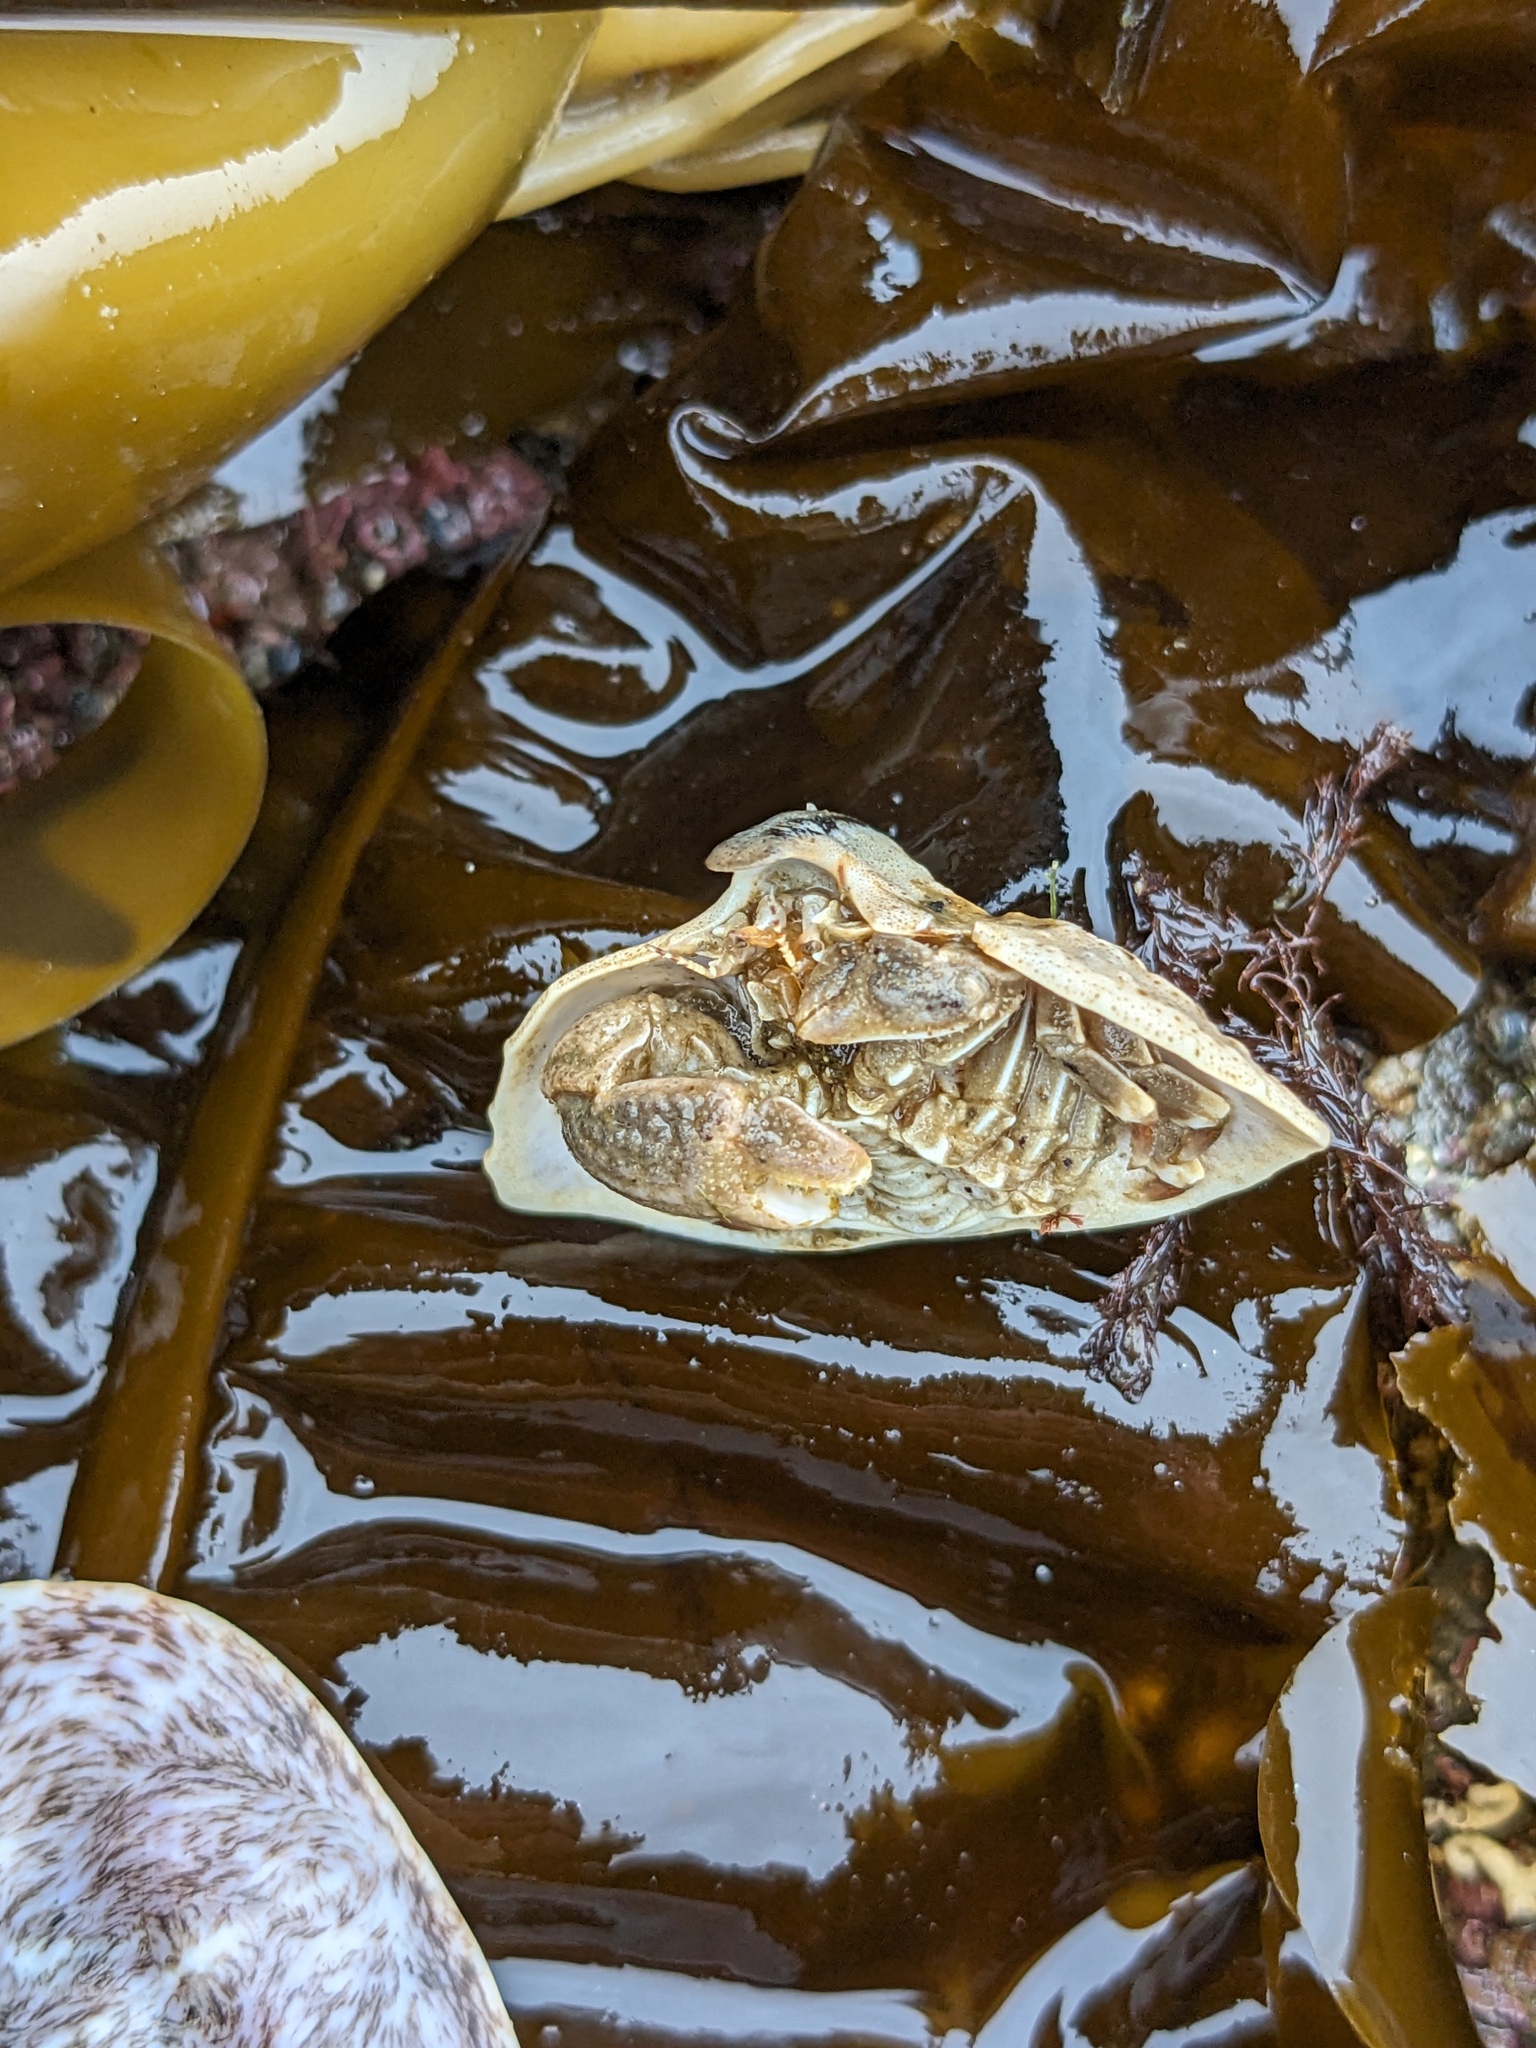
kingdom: Animalia
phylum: Arthropoda
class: Malacostraca
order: Decapoda
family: Lithodidae
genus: Cryptolithodes
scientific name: Cryptolithodes typicus
